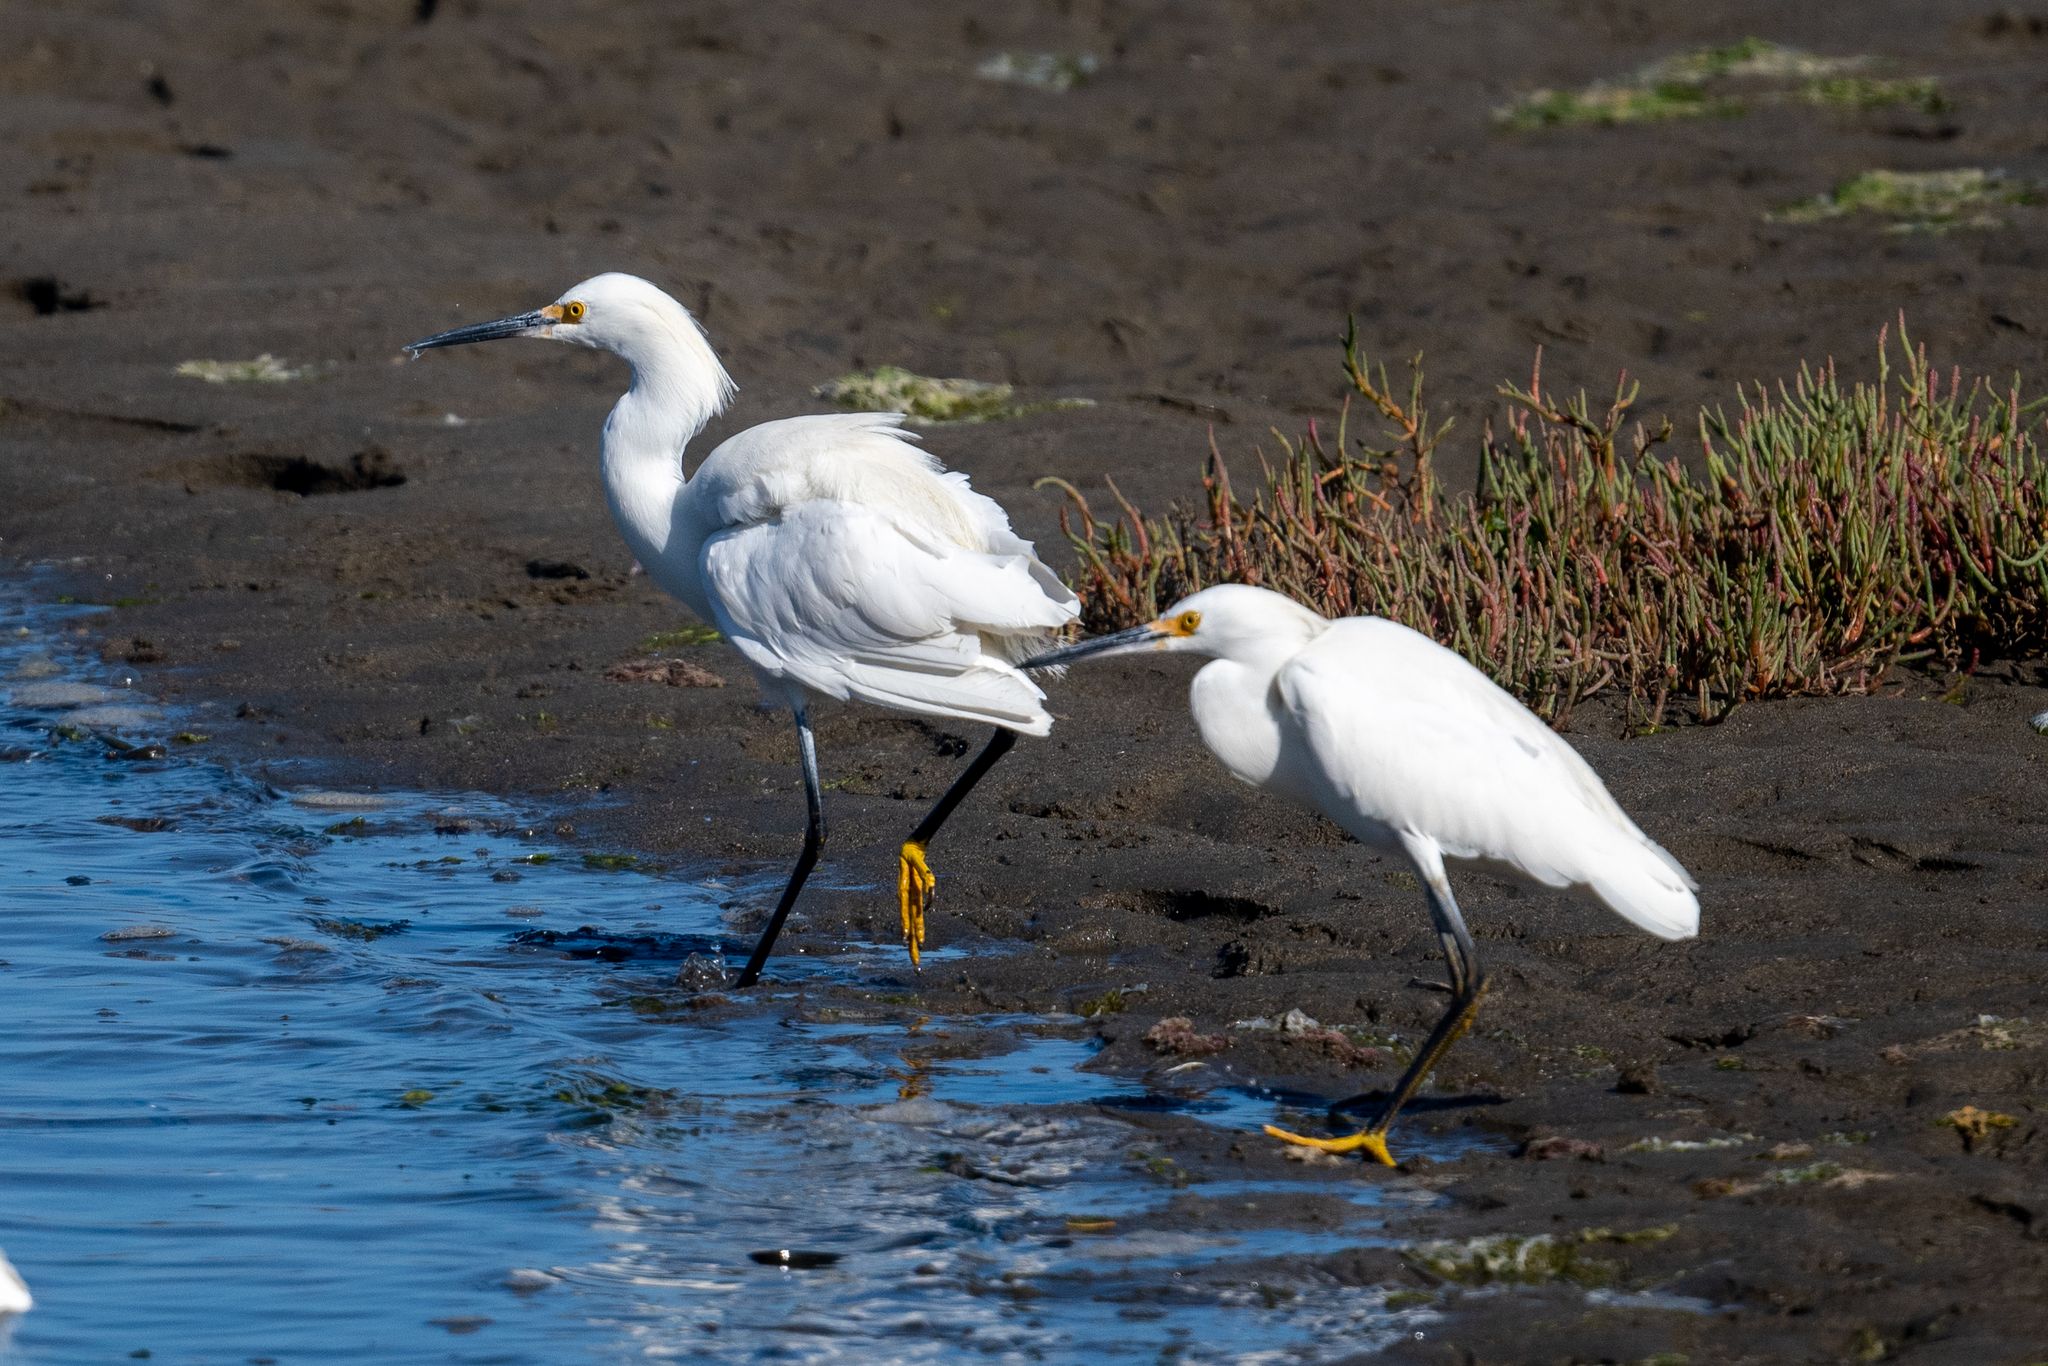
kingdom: Animalia
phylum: Chordata
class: Aves
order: Pelecaniformes
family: Ardeidae
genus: Egretta
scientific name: Egretta thula
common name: Snowy egret
